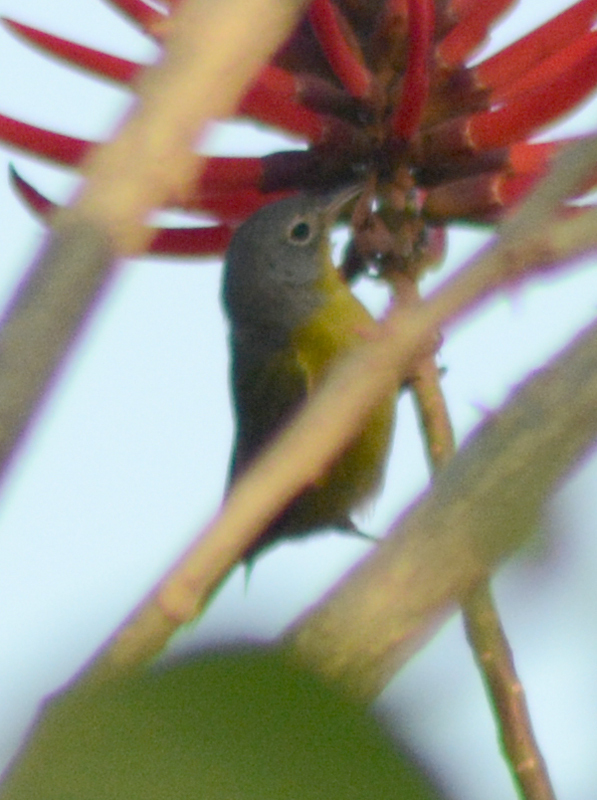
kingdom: Animalia
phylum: Chordata
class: Aves
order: Passeriformes
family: Parulidae
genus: Leiothlypis
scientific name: Leiothlypis ruficapilla
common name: Nashville warbler
